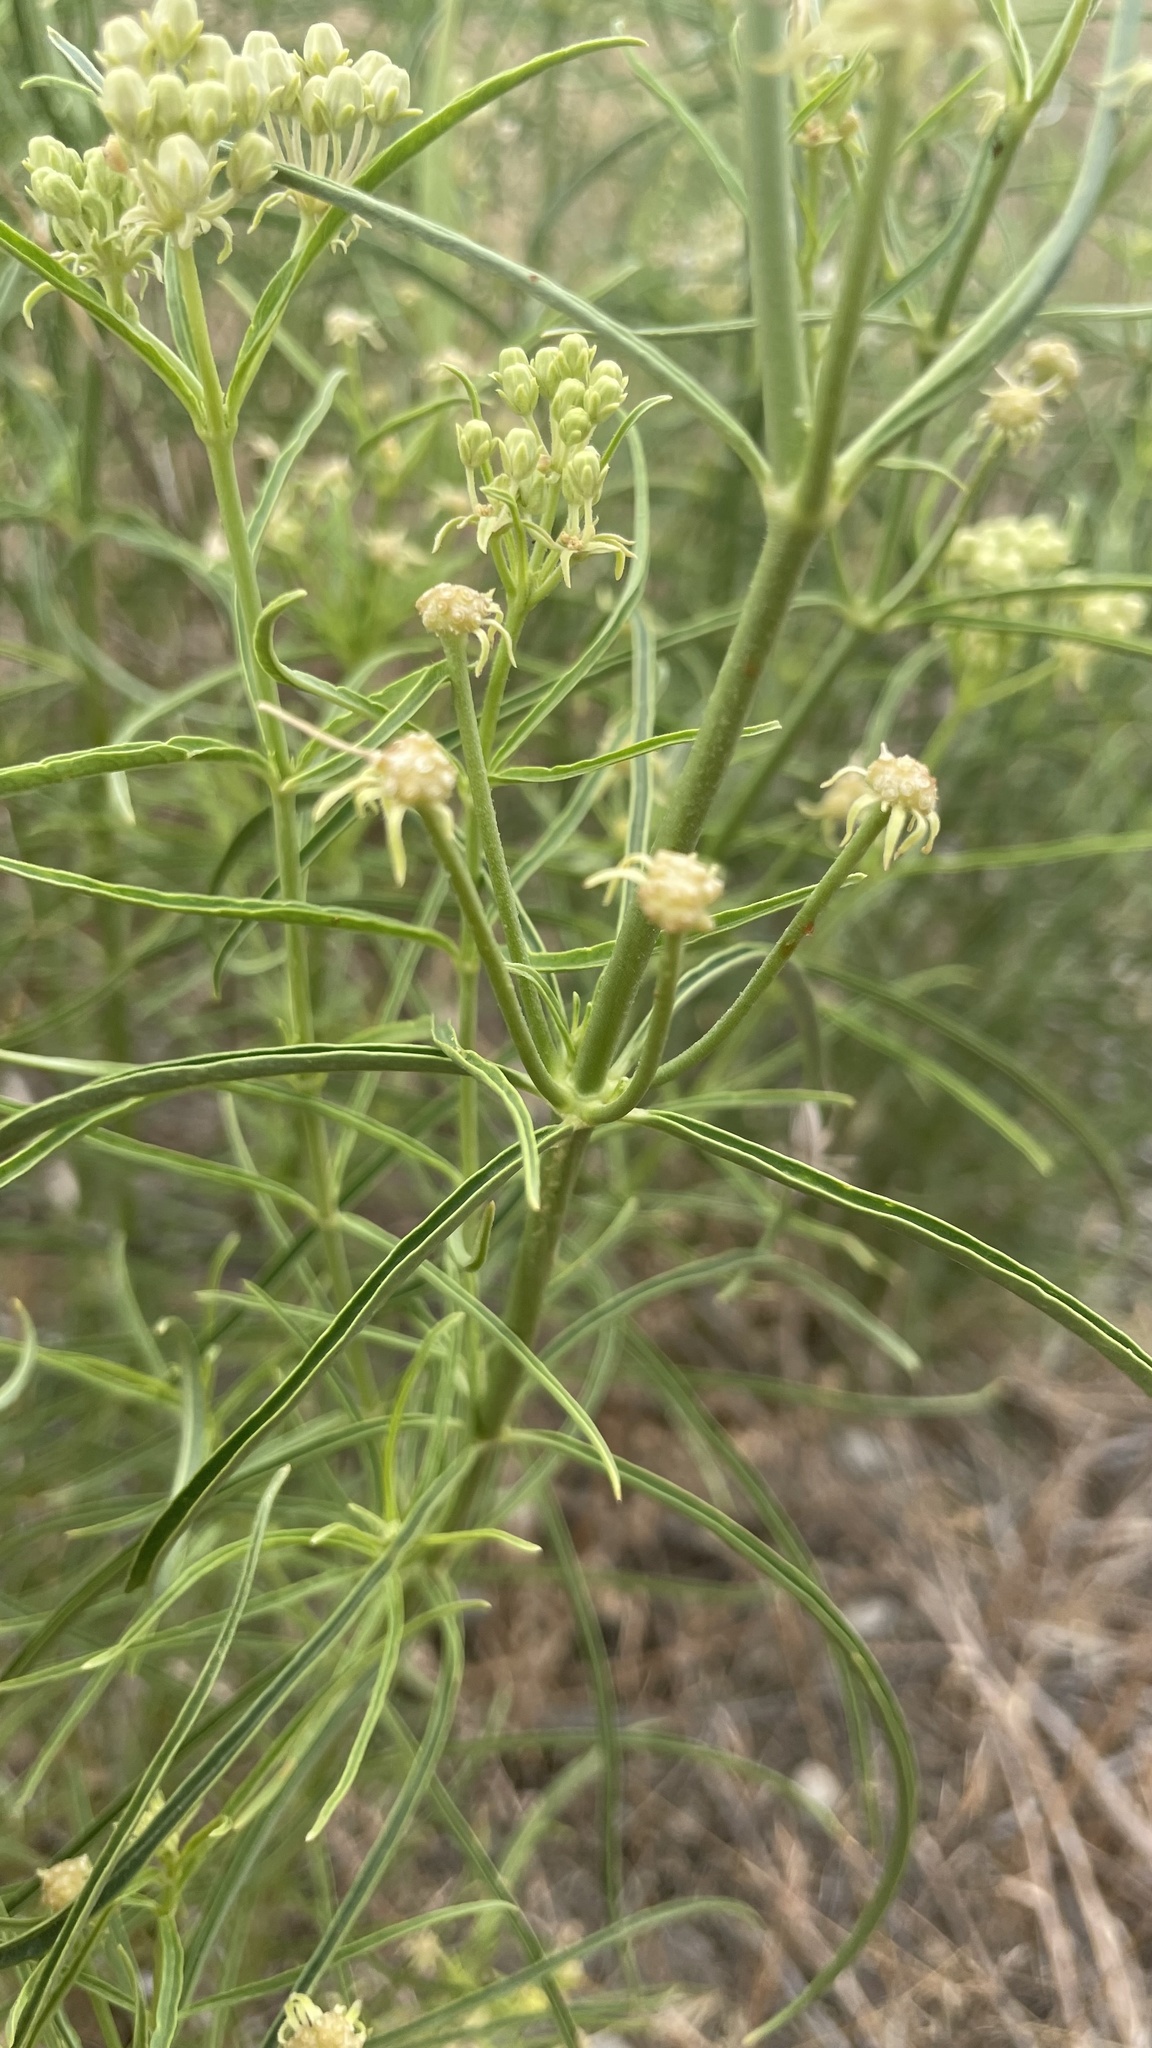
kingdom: Plantae
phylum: Tracheophyta
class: Magnoliopsida
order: Gentianales
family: Apocynaceae
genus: Asclepias
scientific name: Asclepias fascicularis
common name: Mexican milkweed
